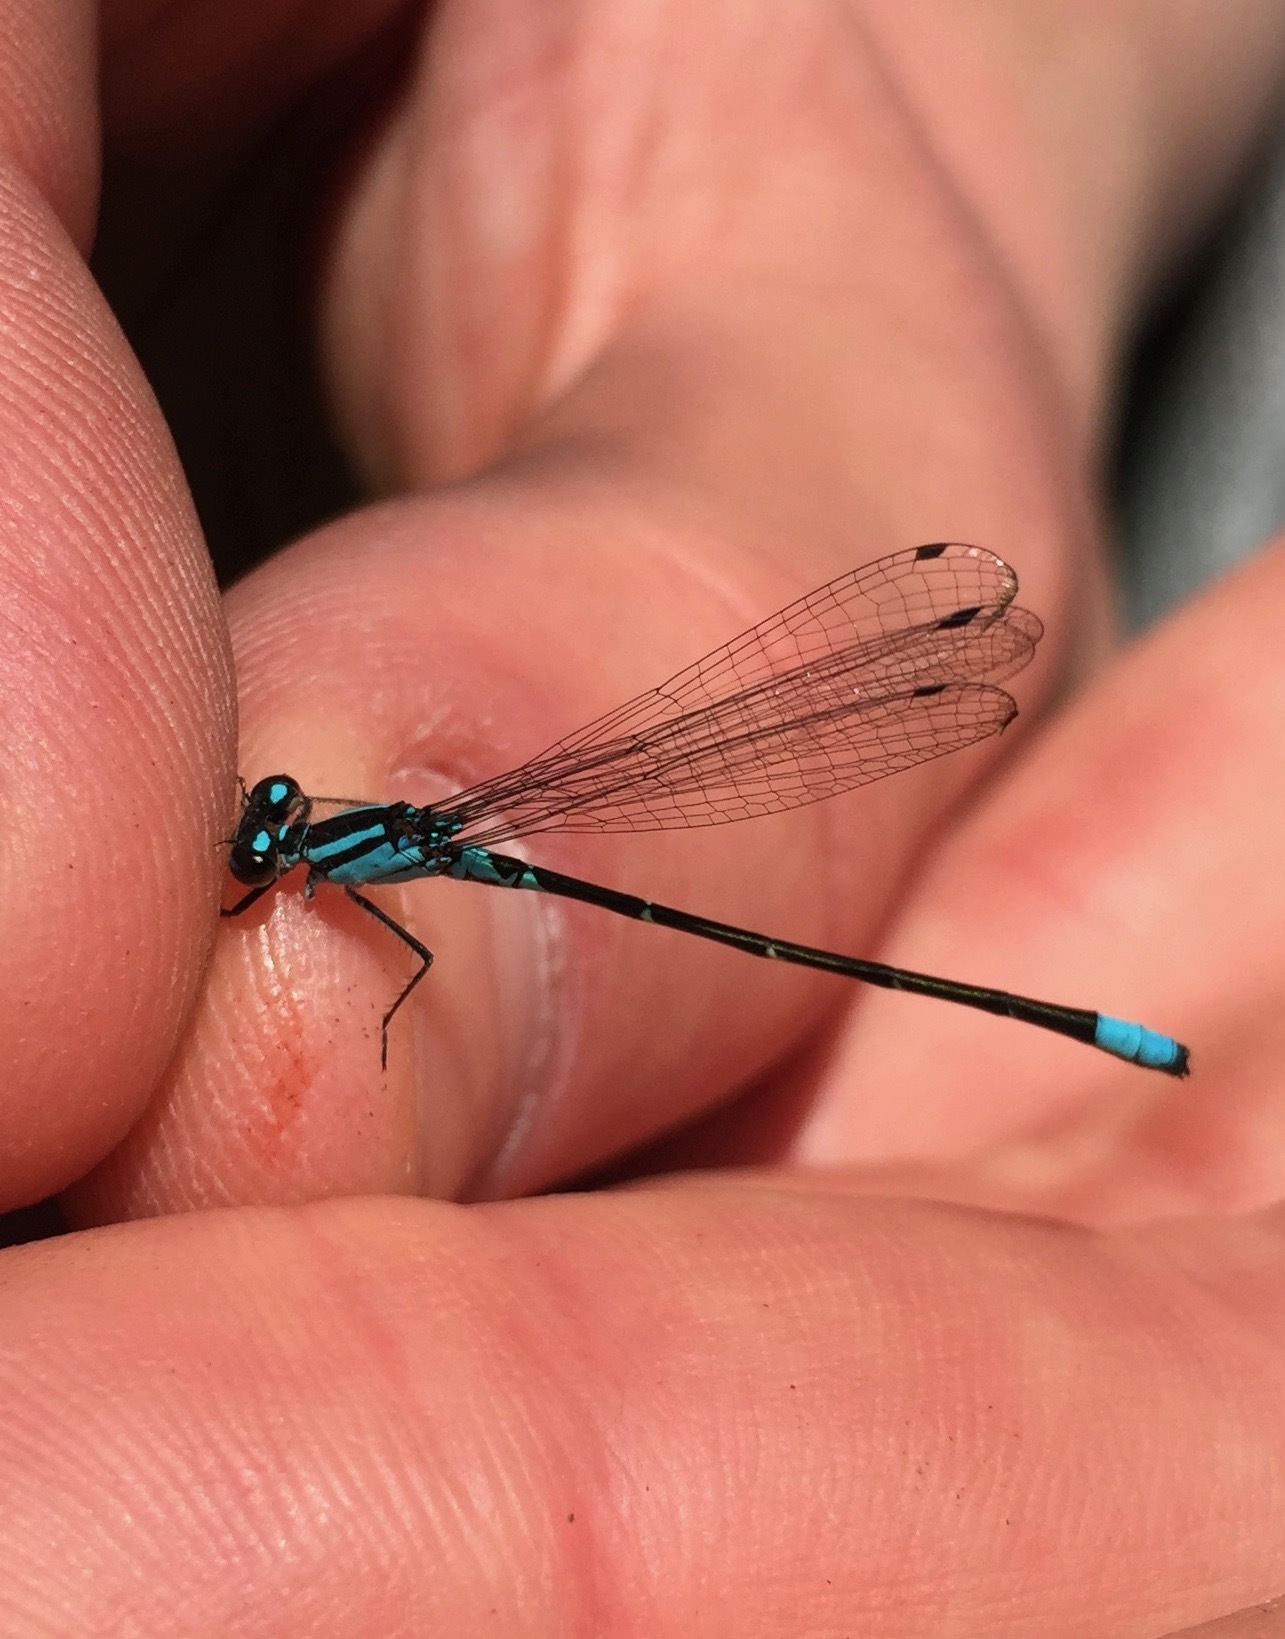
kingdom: Animalia
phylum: Arthropoda
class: Insecta
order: Odonata
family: Coenagrionidae
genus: Enallagma
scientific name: Enallagma geminatum
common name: Skimming bluet
